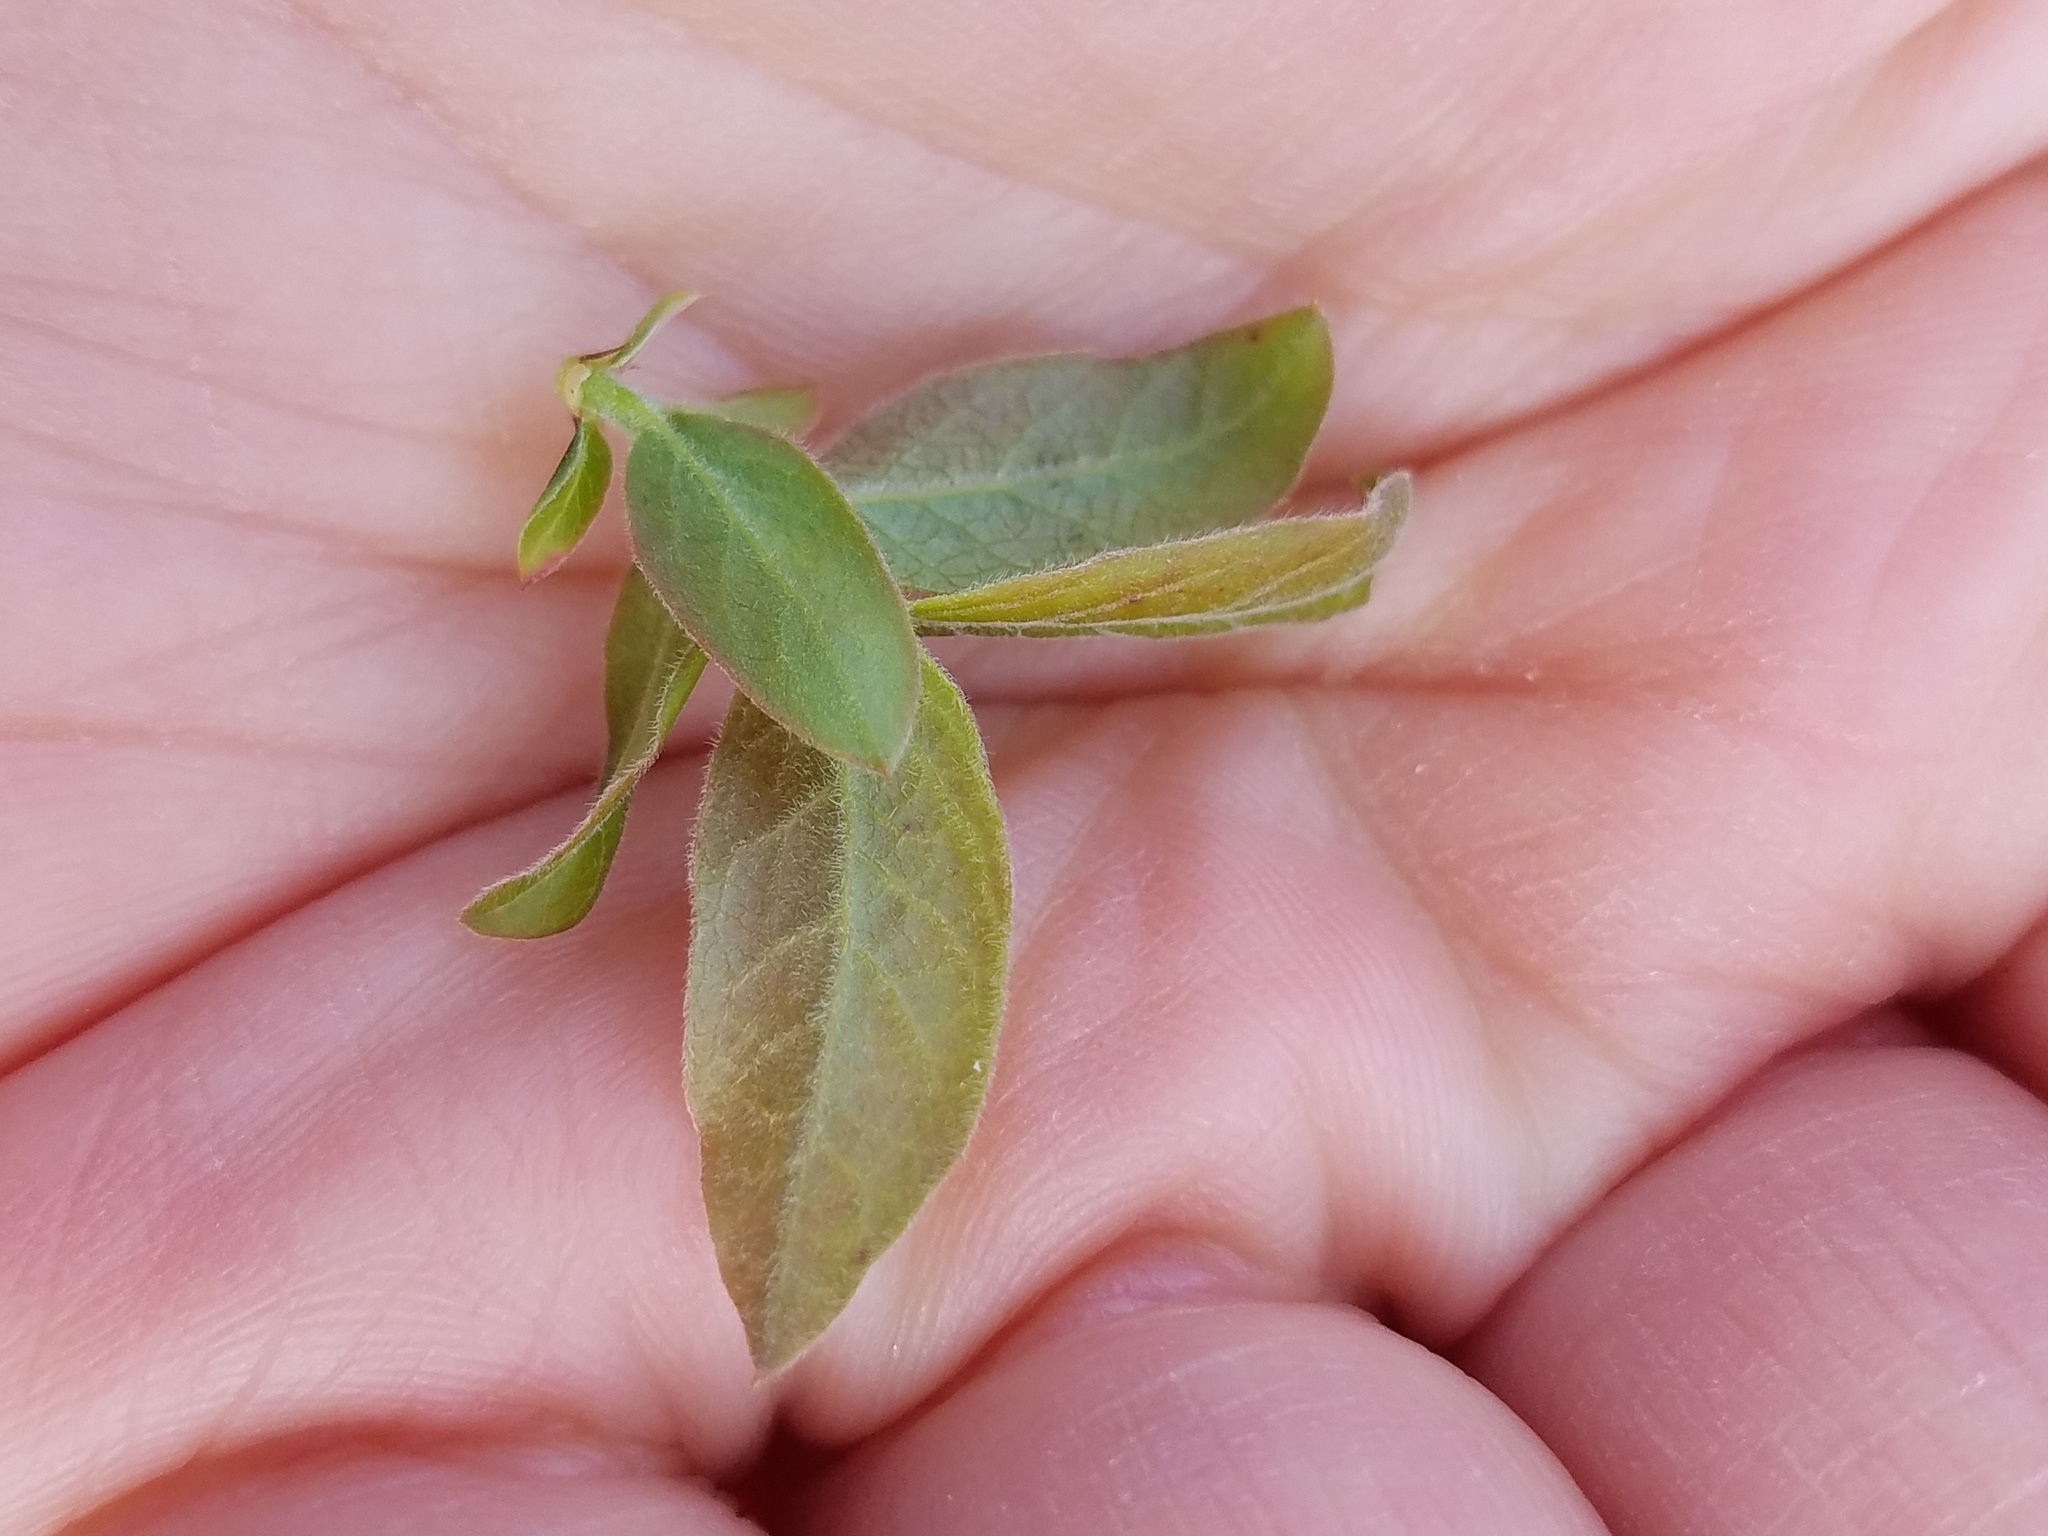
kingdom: Plantae
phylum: Tracheophyta
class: Magnoliopsida
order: Ericales
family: Ericaceae
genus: Vaccinium
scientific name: Vaccinium myrtilloides
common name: Canada blueberry
